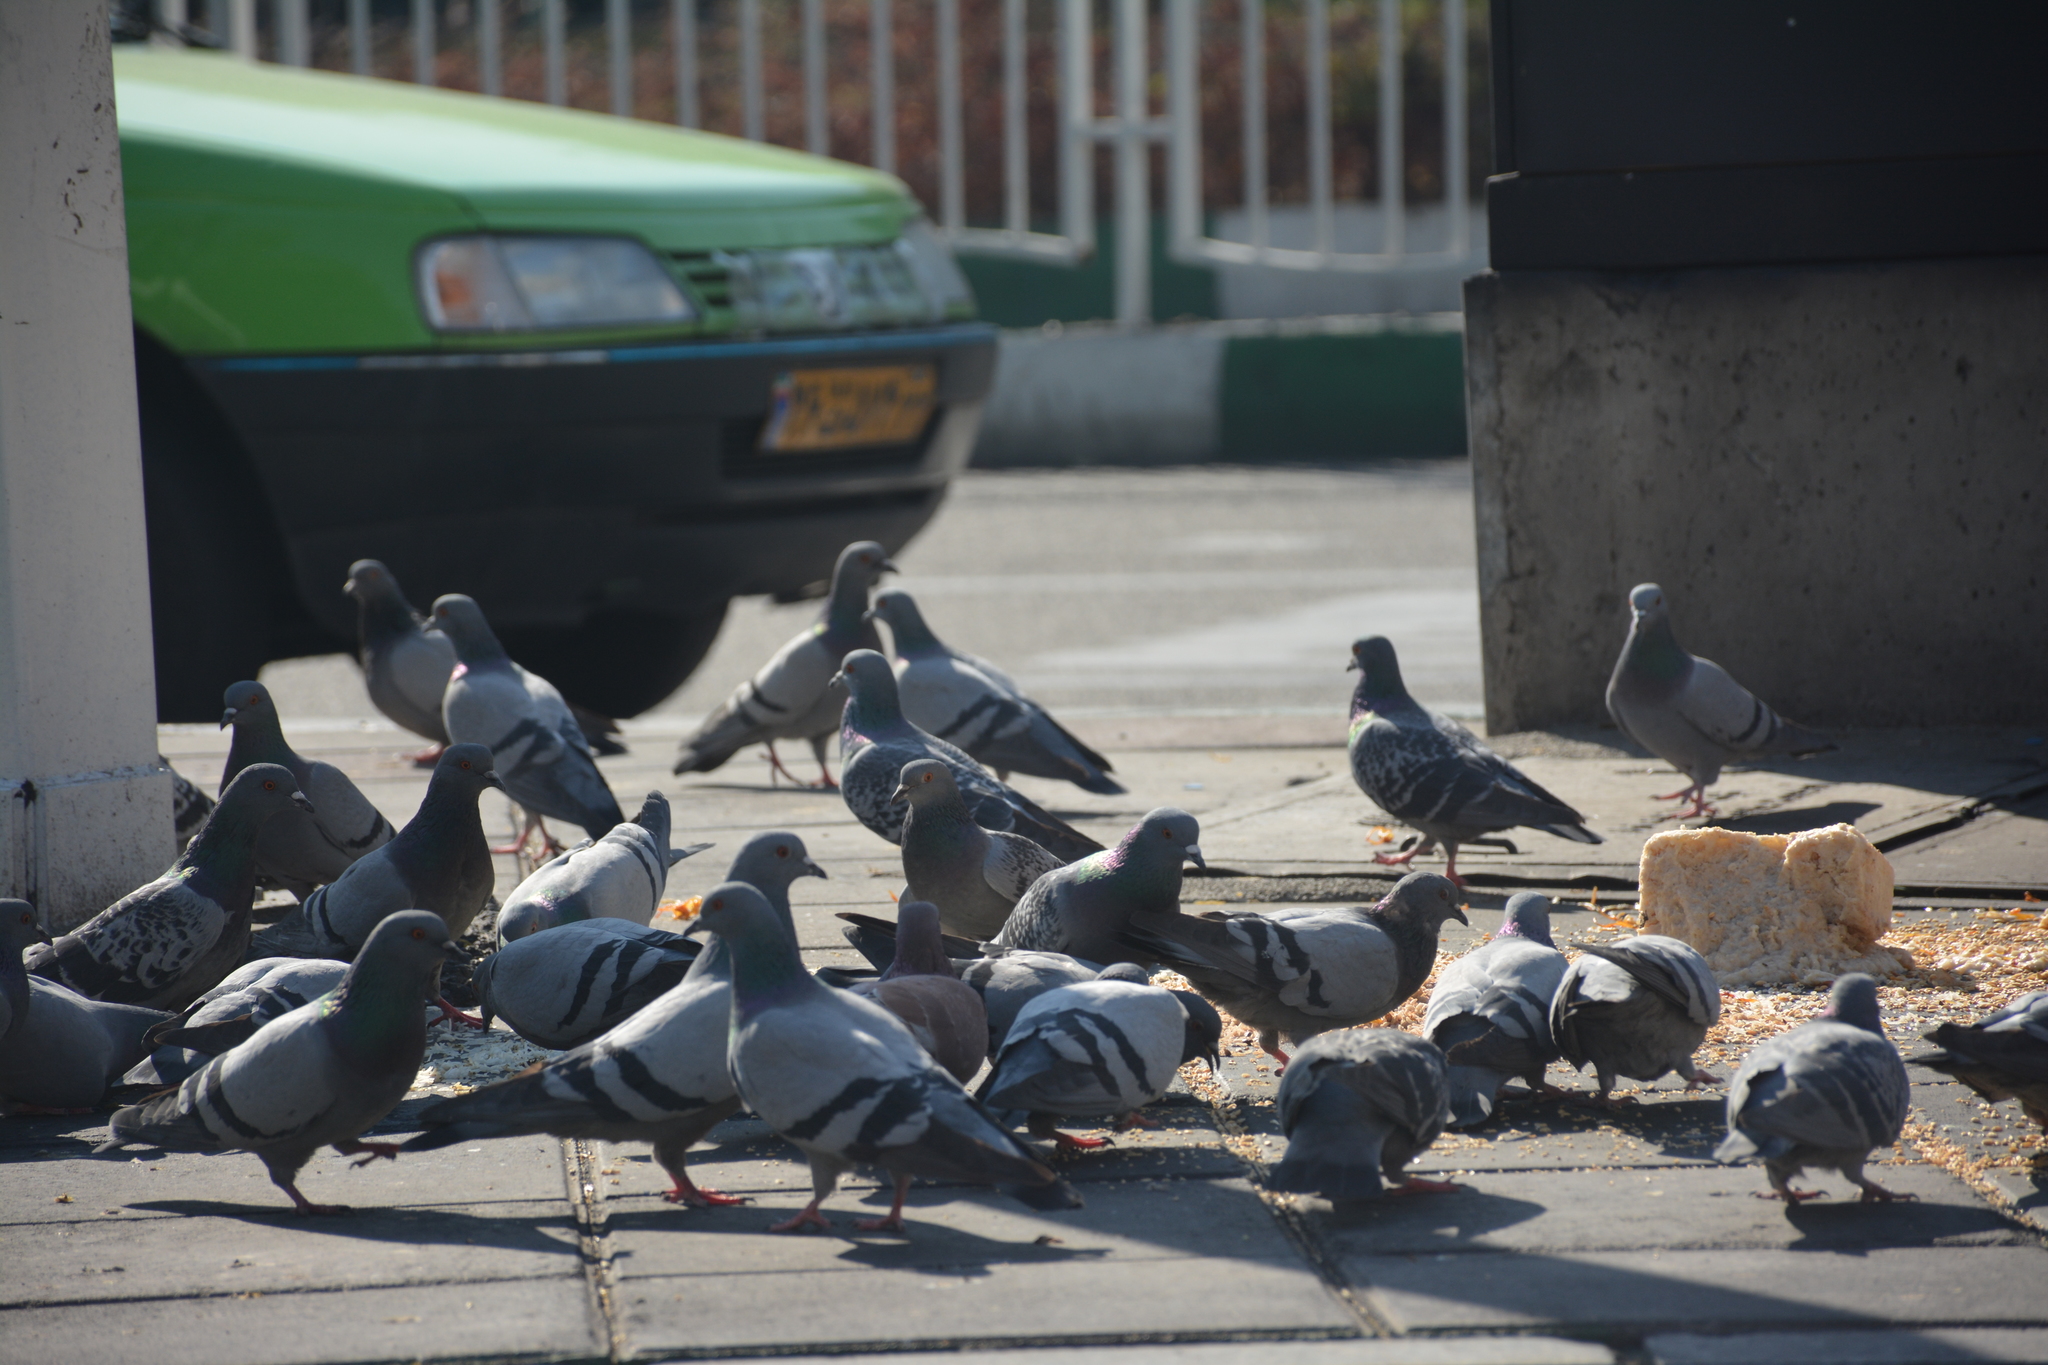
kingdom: Animalia
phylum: Chordata
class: Aves
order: Columbiformes
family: Columbidae
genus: Columba
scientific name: Columba livia
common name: Rock pigeon
